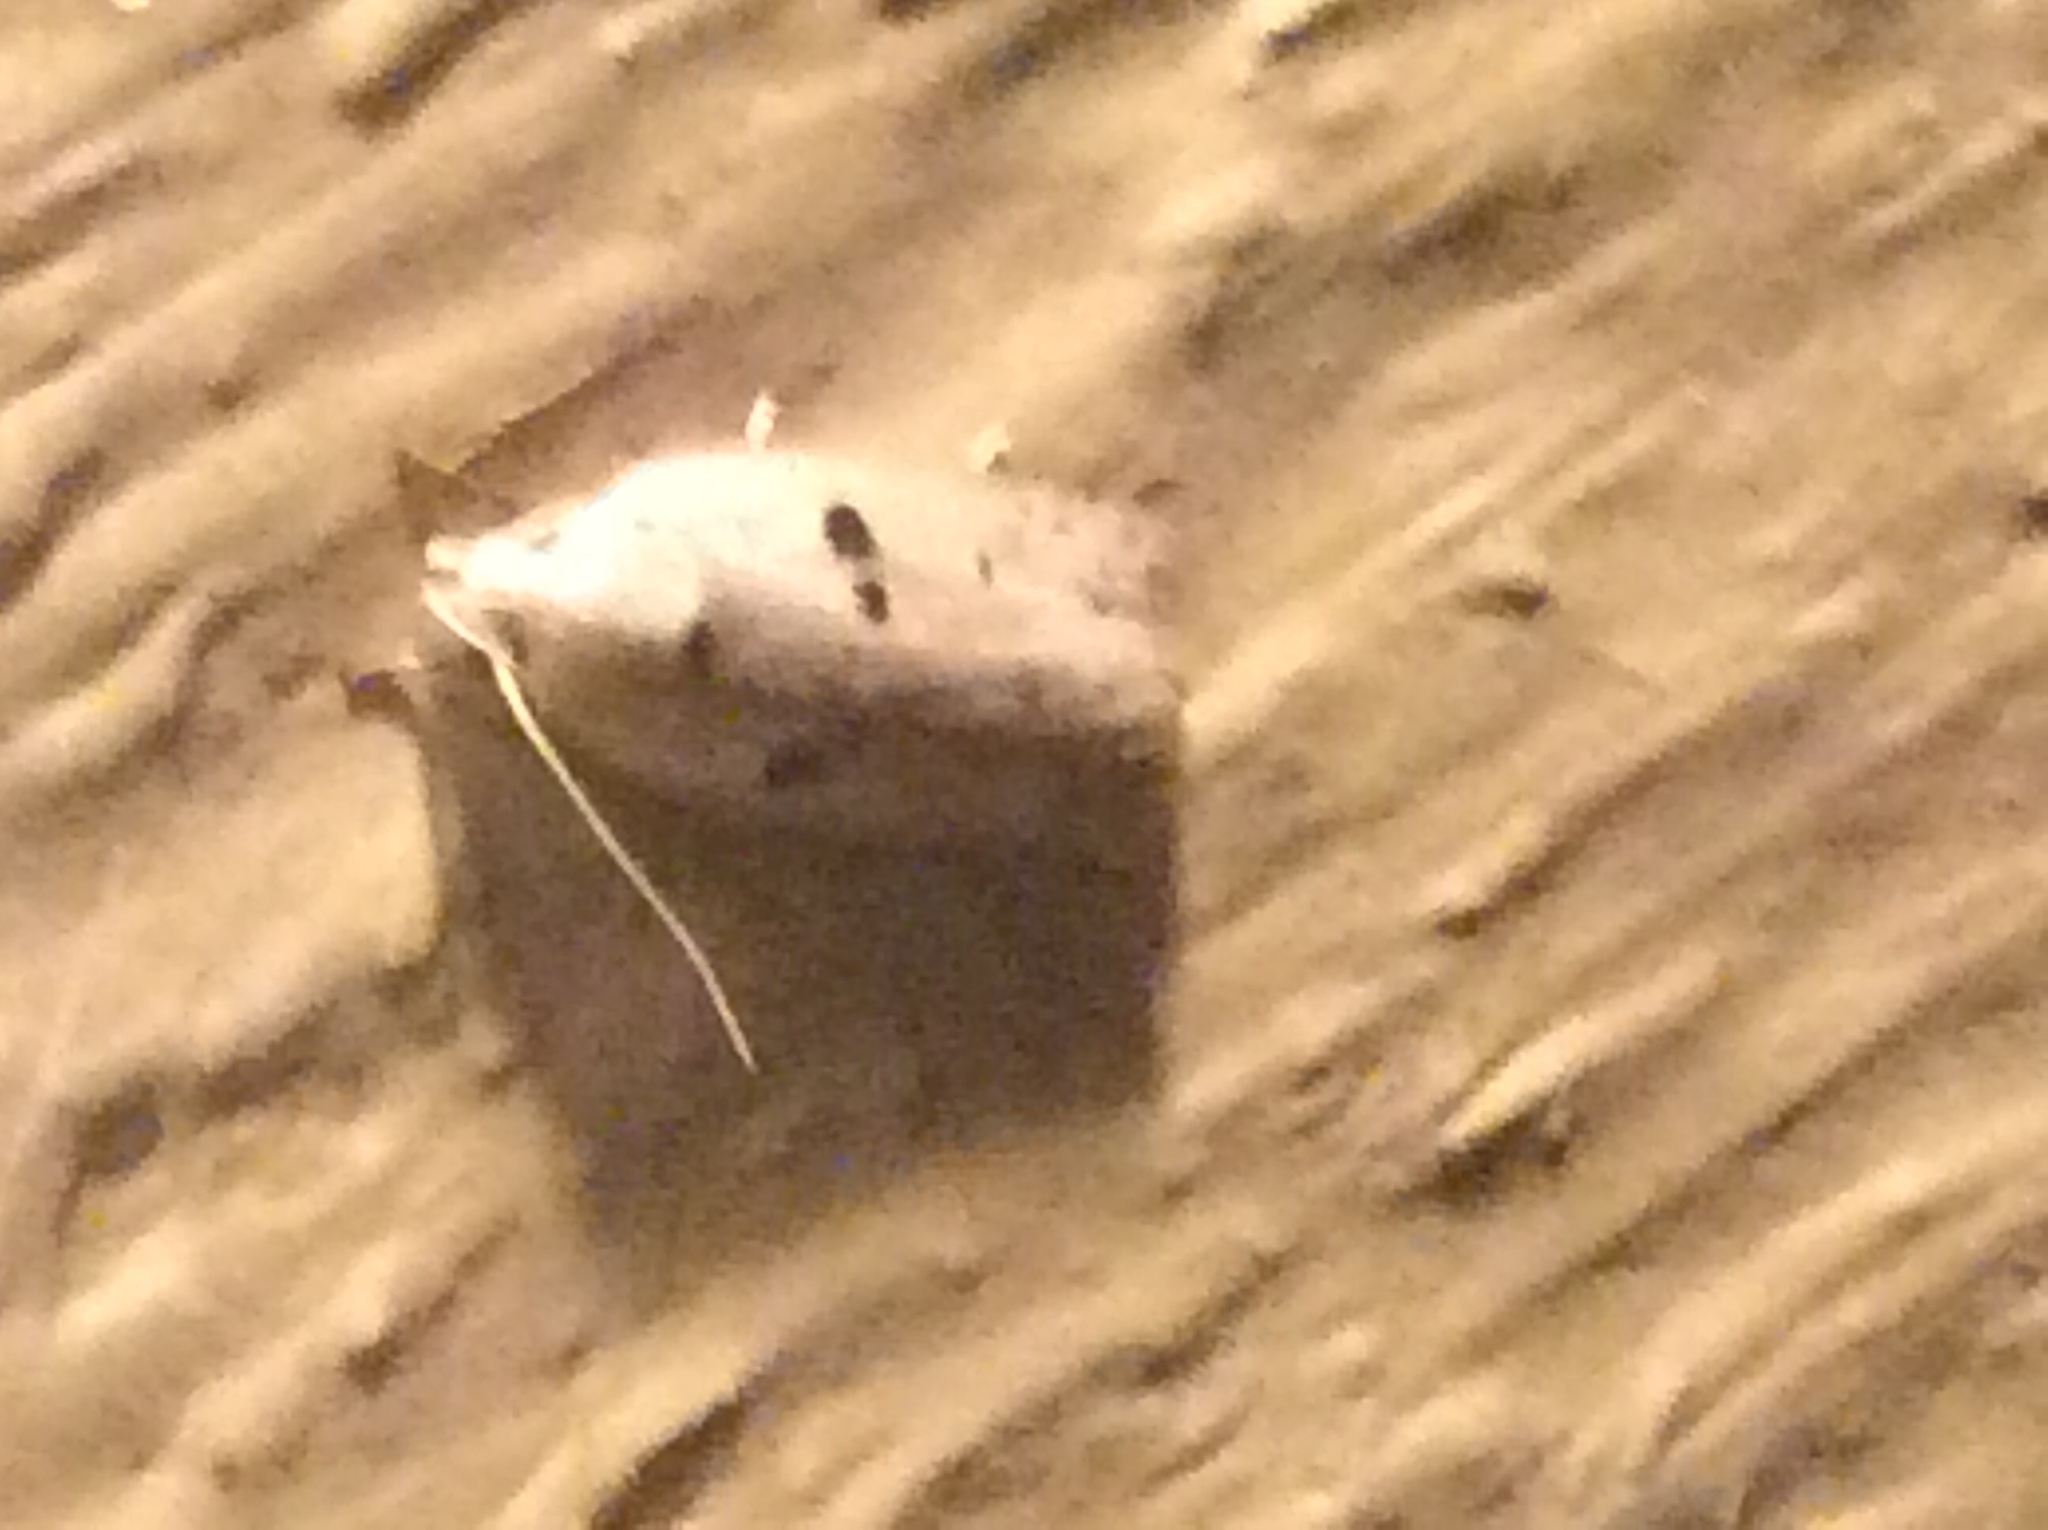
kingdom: Animalia
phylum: Arthropoda
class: Insecta
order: Lepidoptera
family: Peleopodidae
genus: Scythropiodes
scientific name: Scythropiodes issikii
